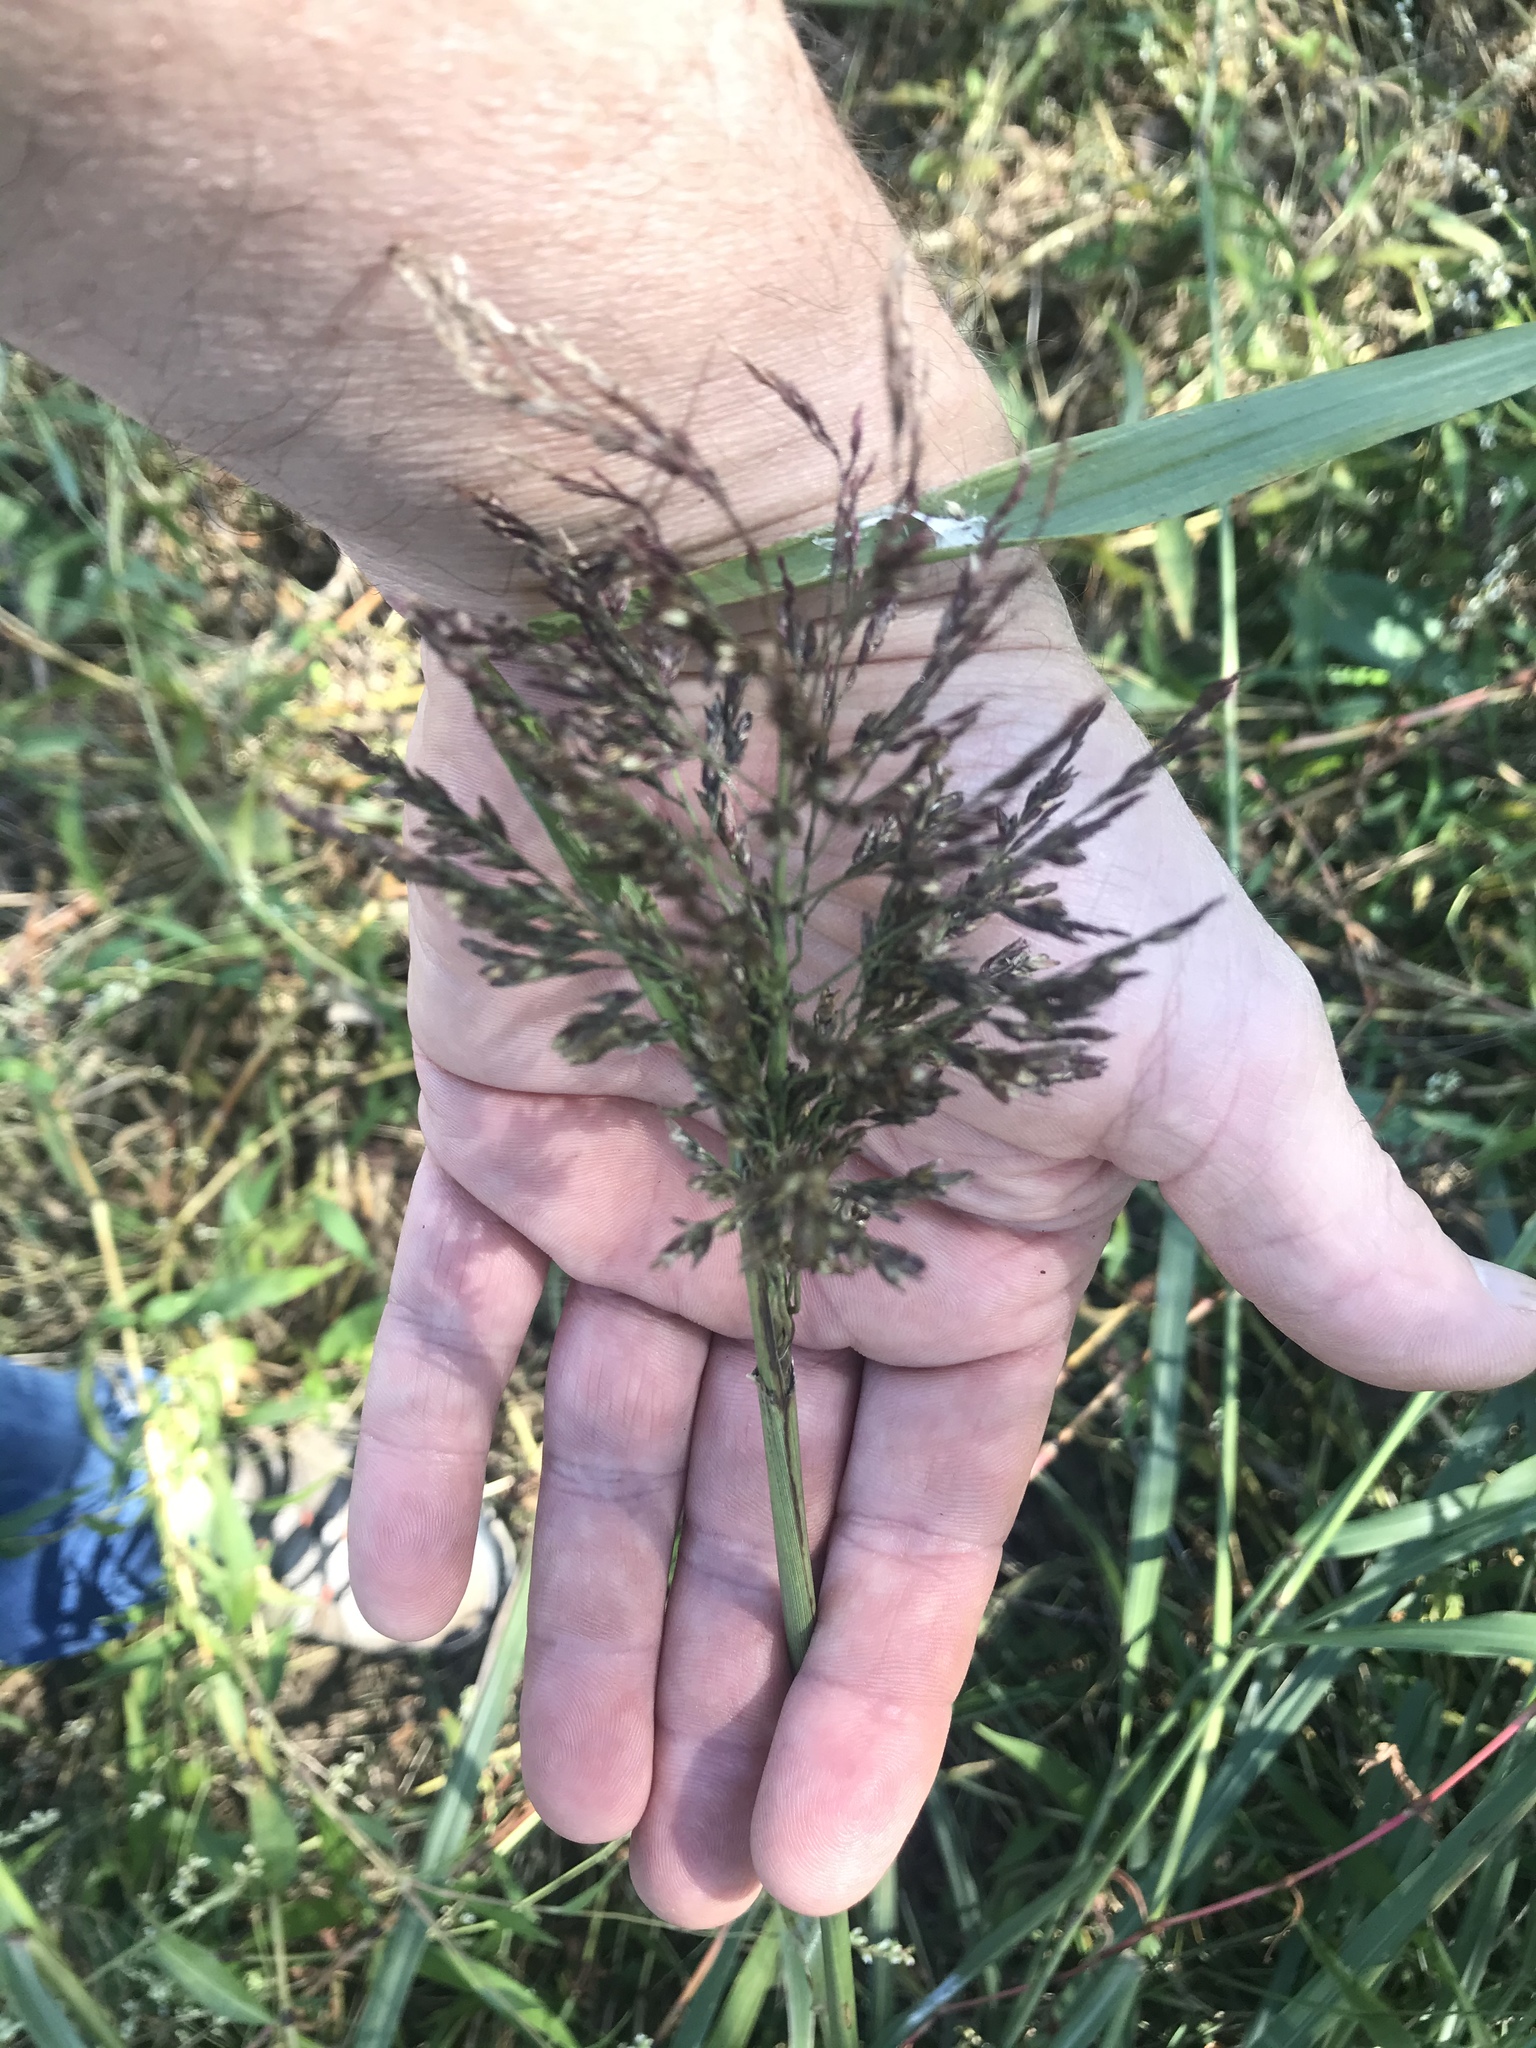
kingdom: Plantae
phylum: Tracheophyta
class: Liliopsida
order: Poales
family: Poaceae
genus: Tridens
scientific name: Tridens flavus
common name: Purpletop
